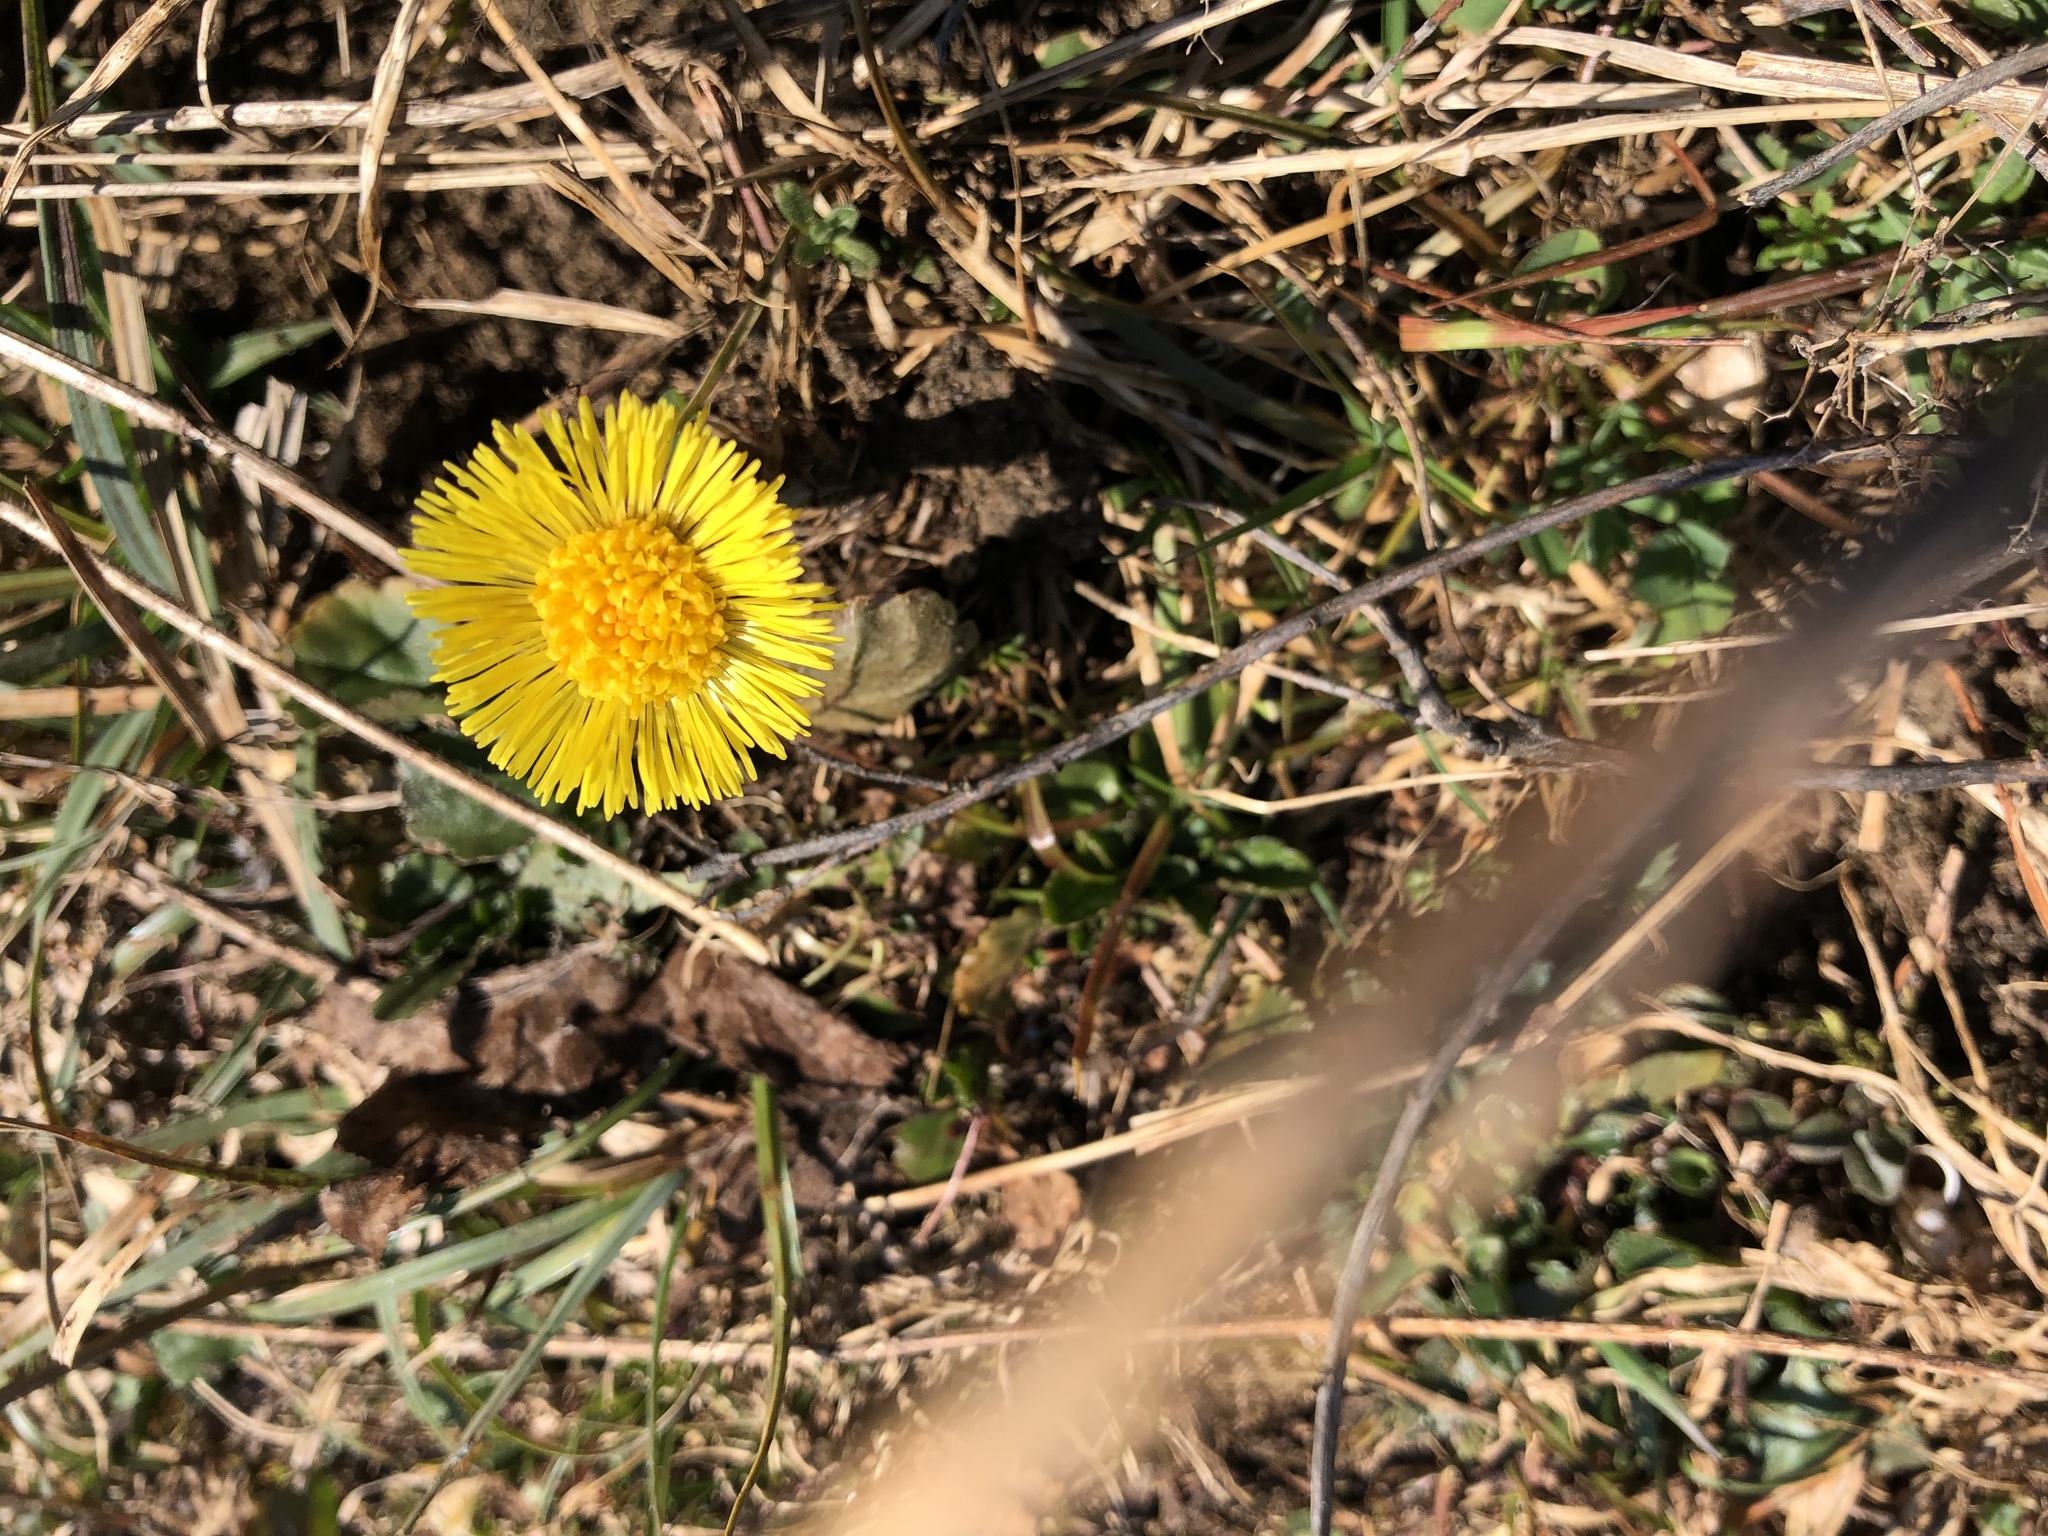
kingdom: Plantae
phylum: Tracheophyta
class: Magnoliopsida
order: Asterales
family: Asteraceae
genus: Tussilago
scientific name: Tussilago farfara
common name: Coltsfoot
